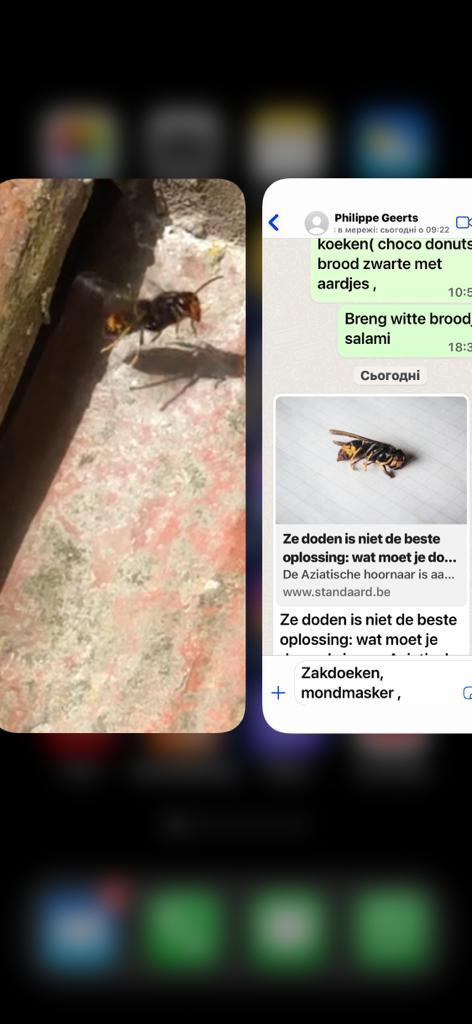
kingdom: Animalia
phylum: Arthropoda
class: Insecta
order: Hymenoptera
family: Vespidae
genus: Vespa
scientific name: Vespa velutina
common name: Asian hornet
